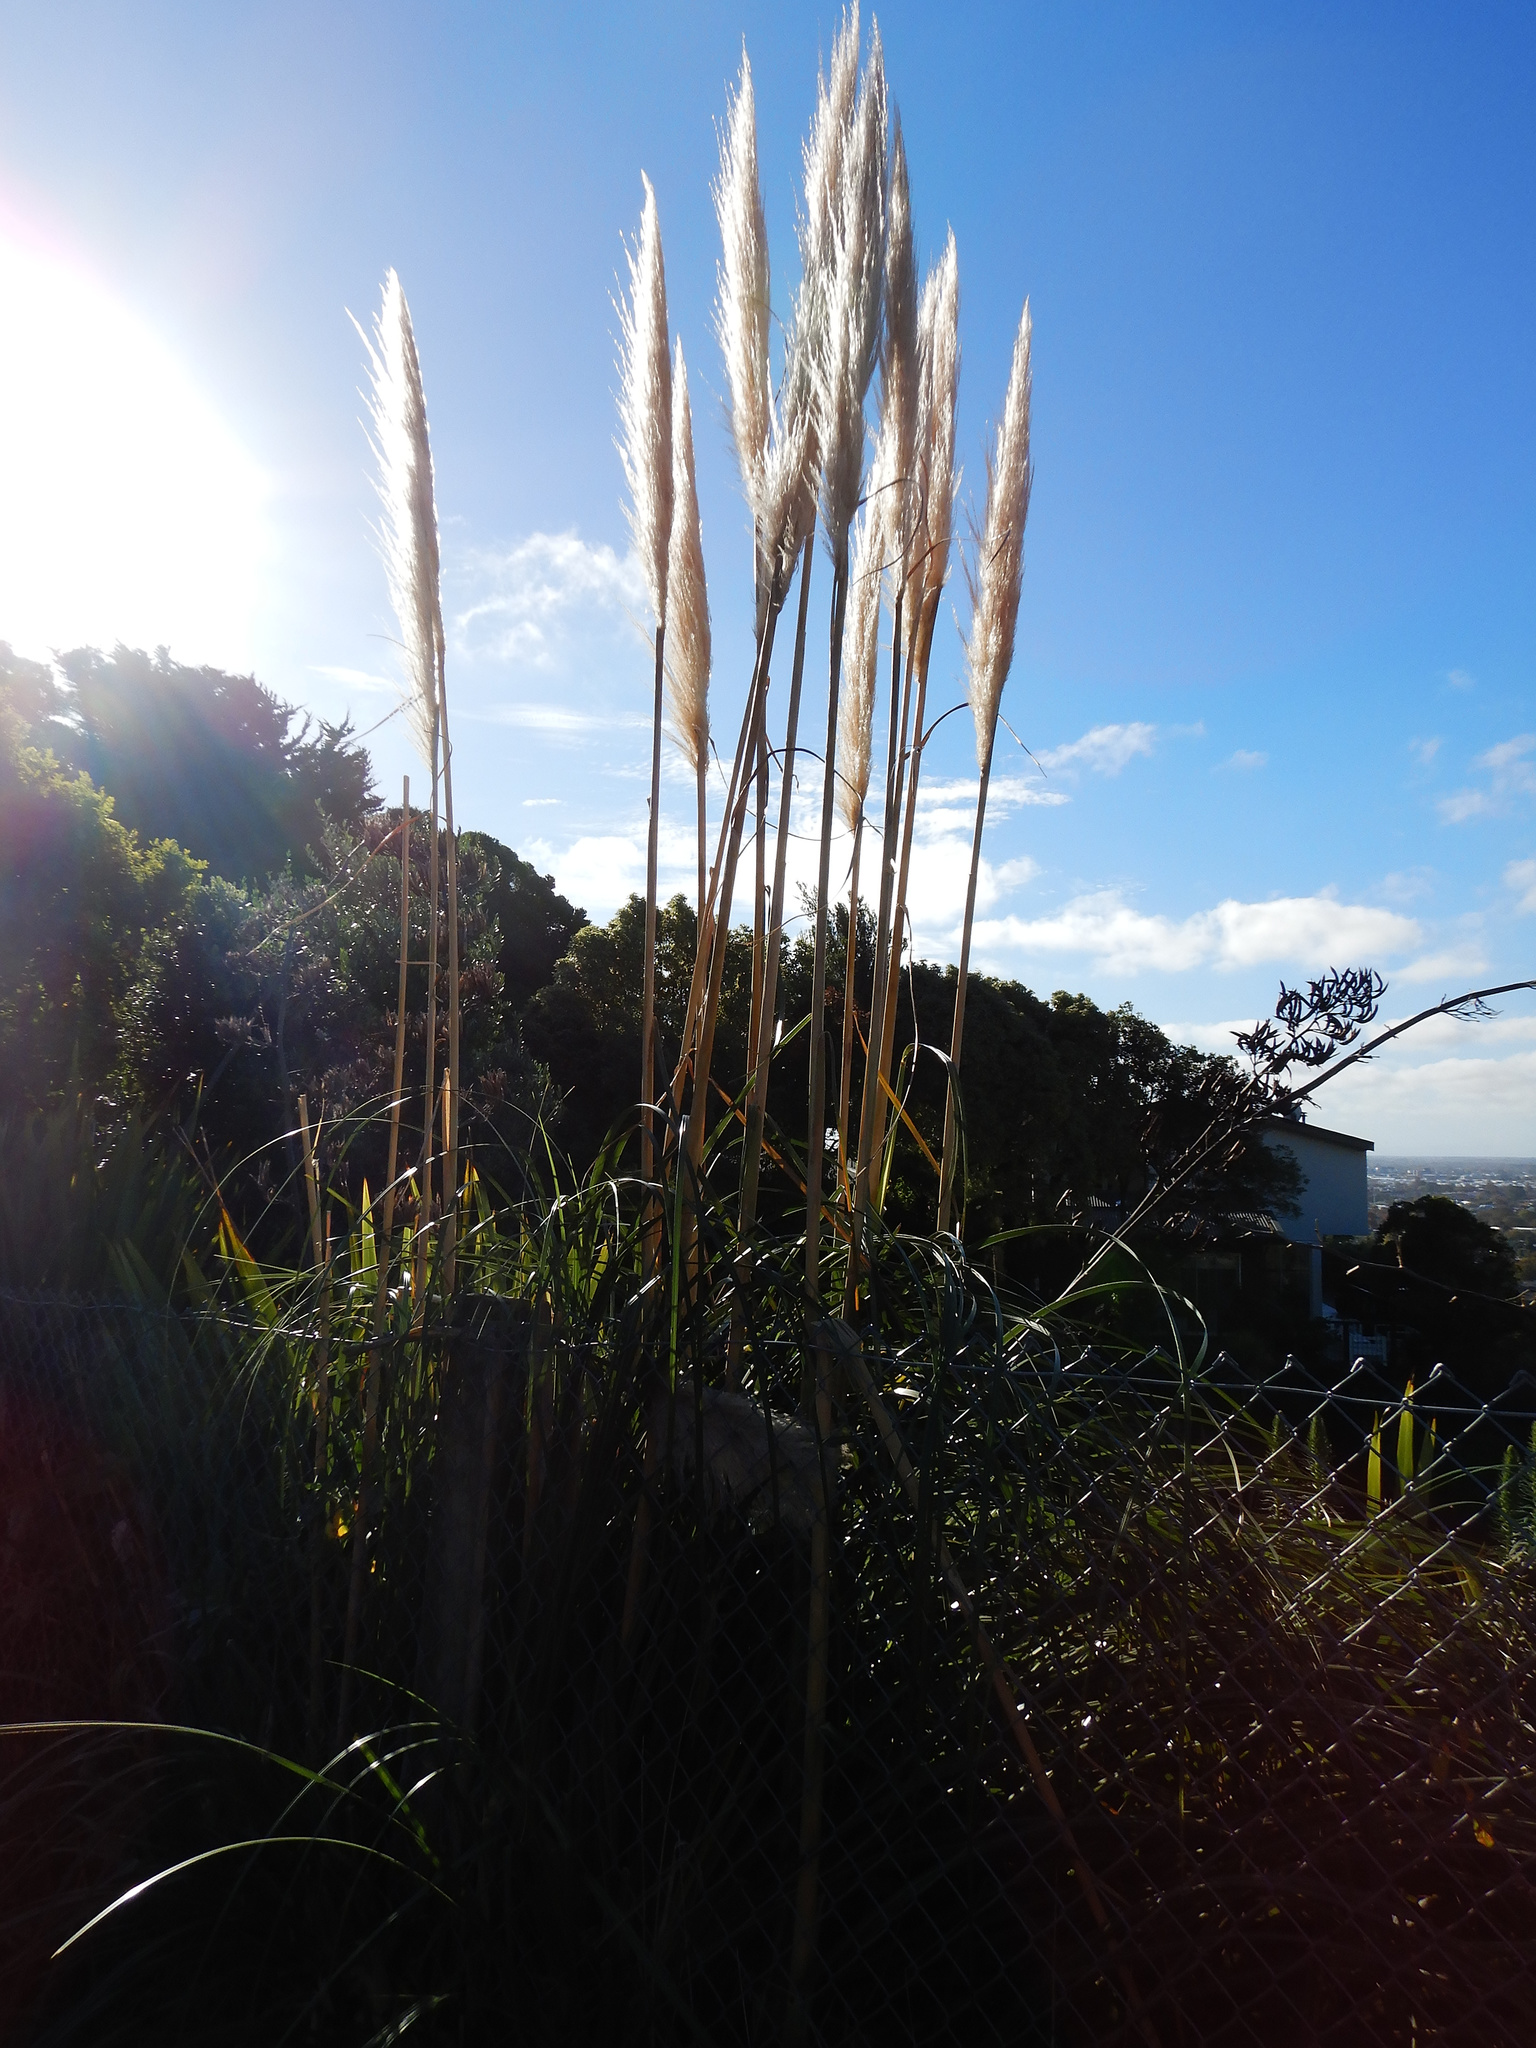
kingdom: Plantae
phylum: Tracheophyta
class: Liliopsida
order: Poales
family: Poaceae
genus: Cortaderia
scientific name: Cortaderia selloana
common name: Uruguayan pampas grass
